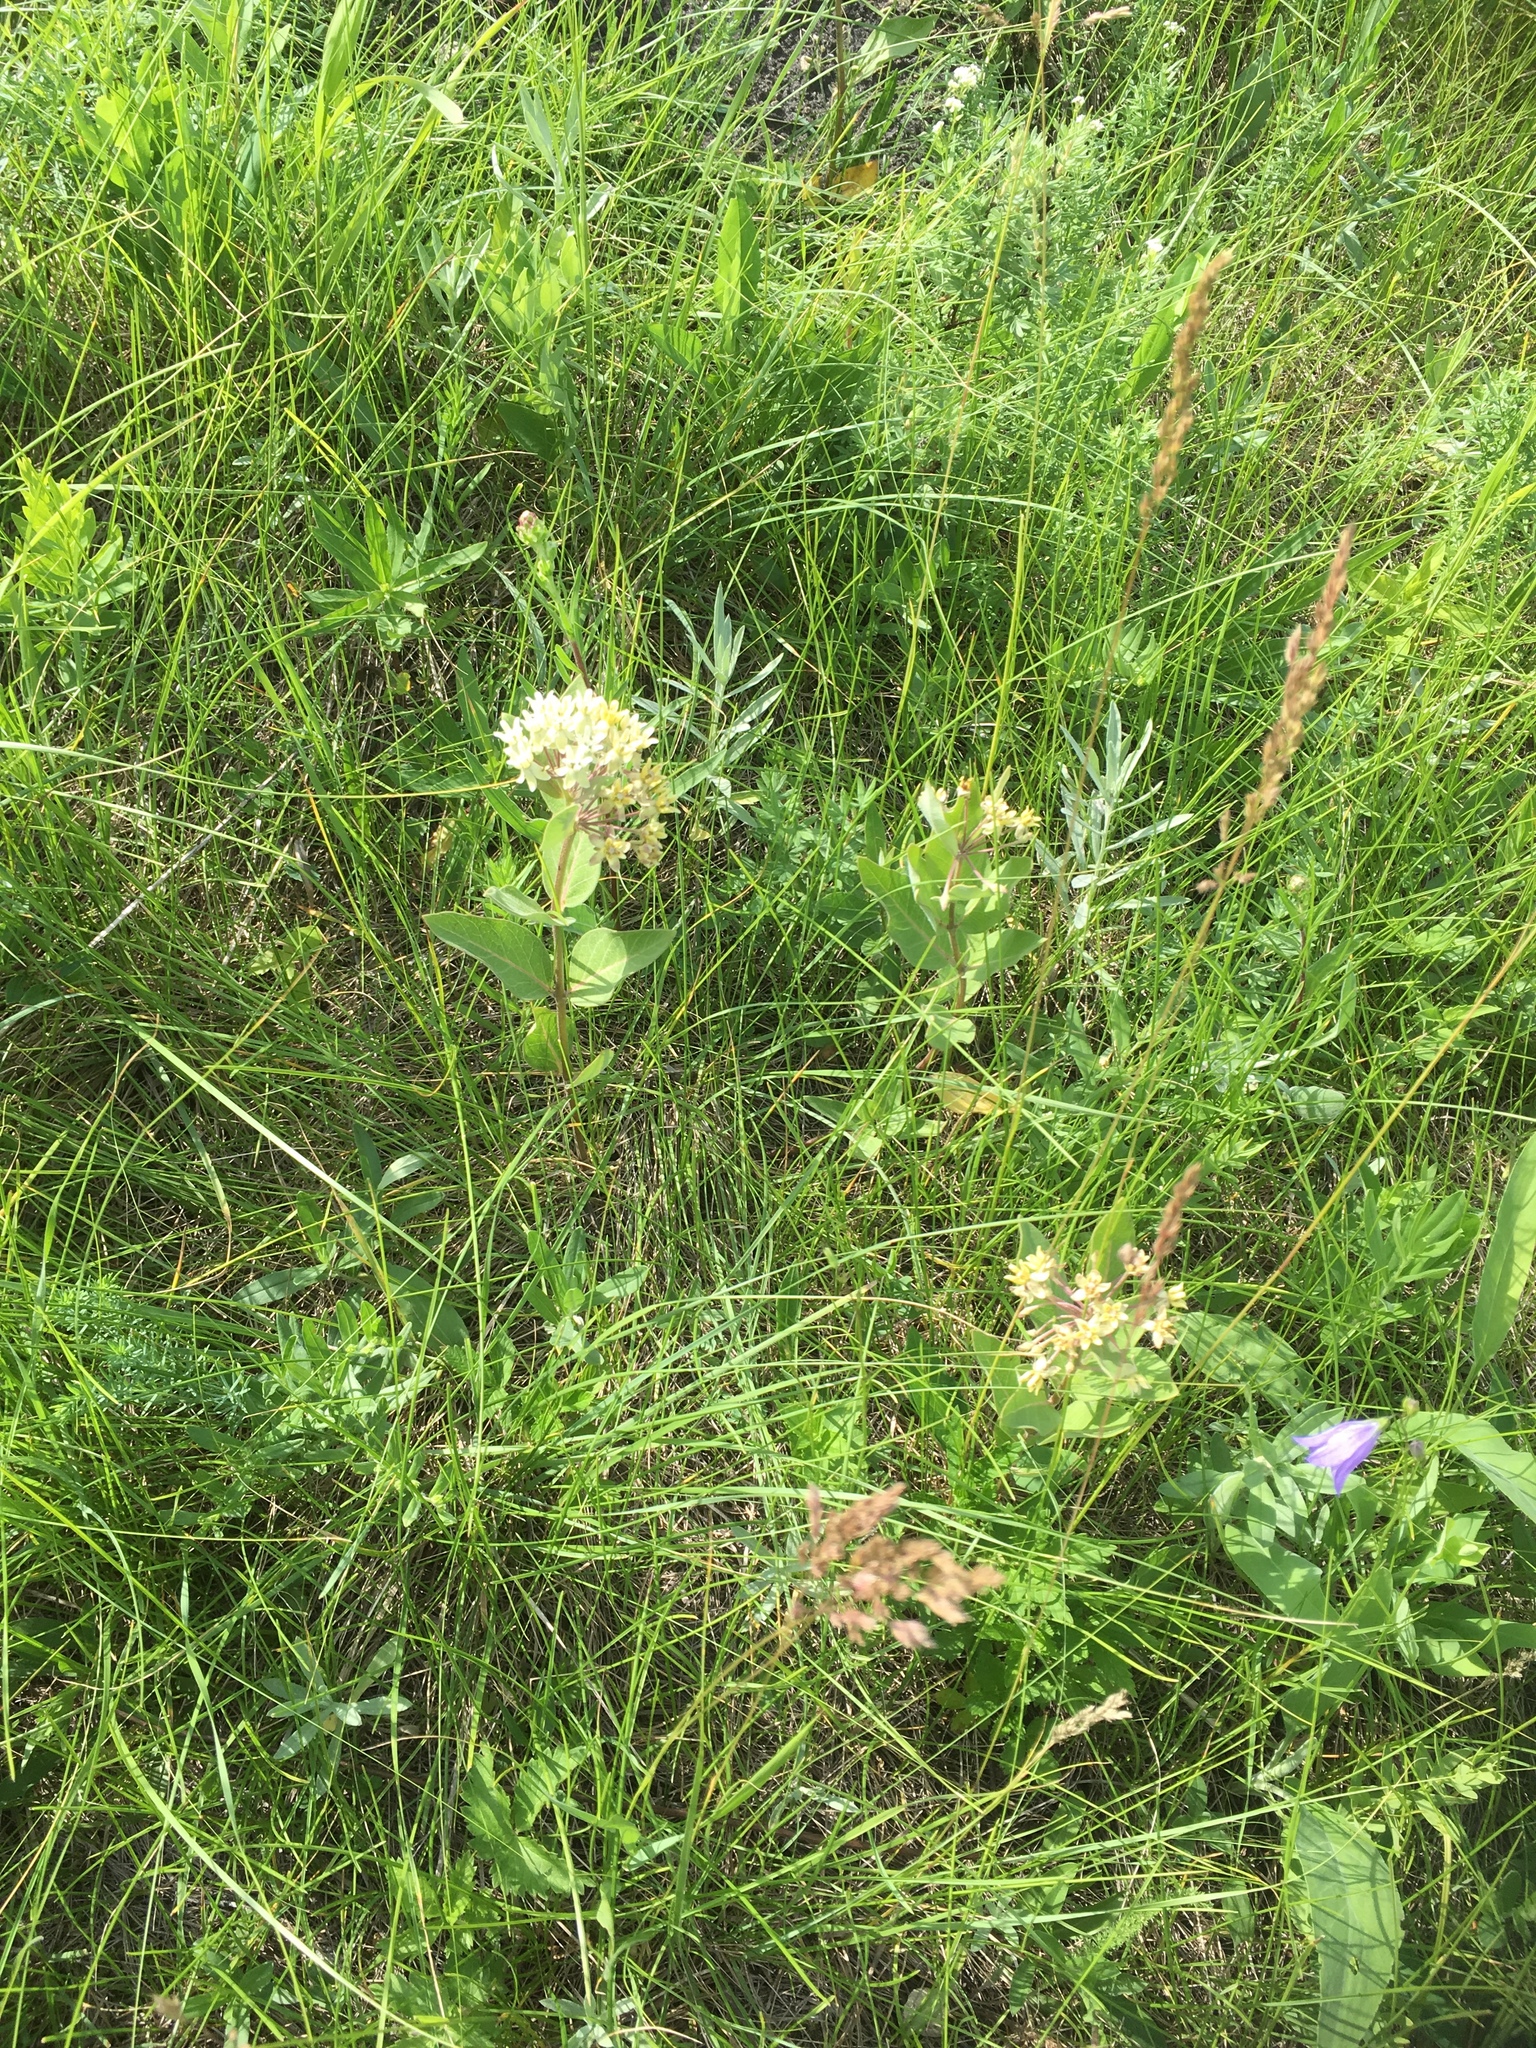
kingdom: Plantae
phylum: Tracheophyta
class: Magnoliopsida
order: Gentianales
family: Apocynaceae
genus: Asclepias
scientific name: Asclepias ovalifolia
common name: Dwarf milkweed
